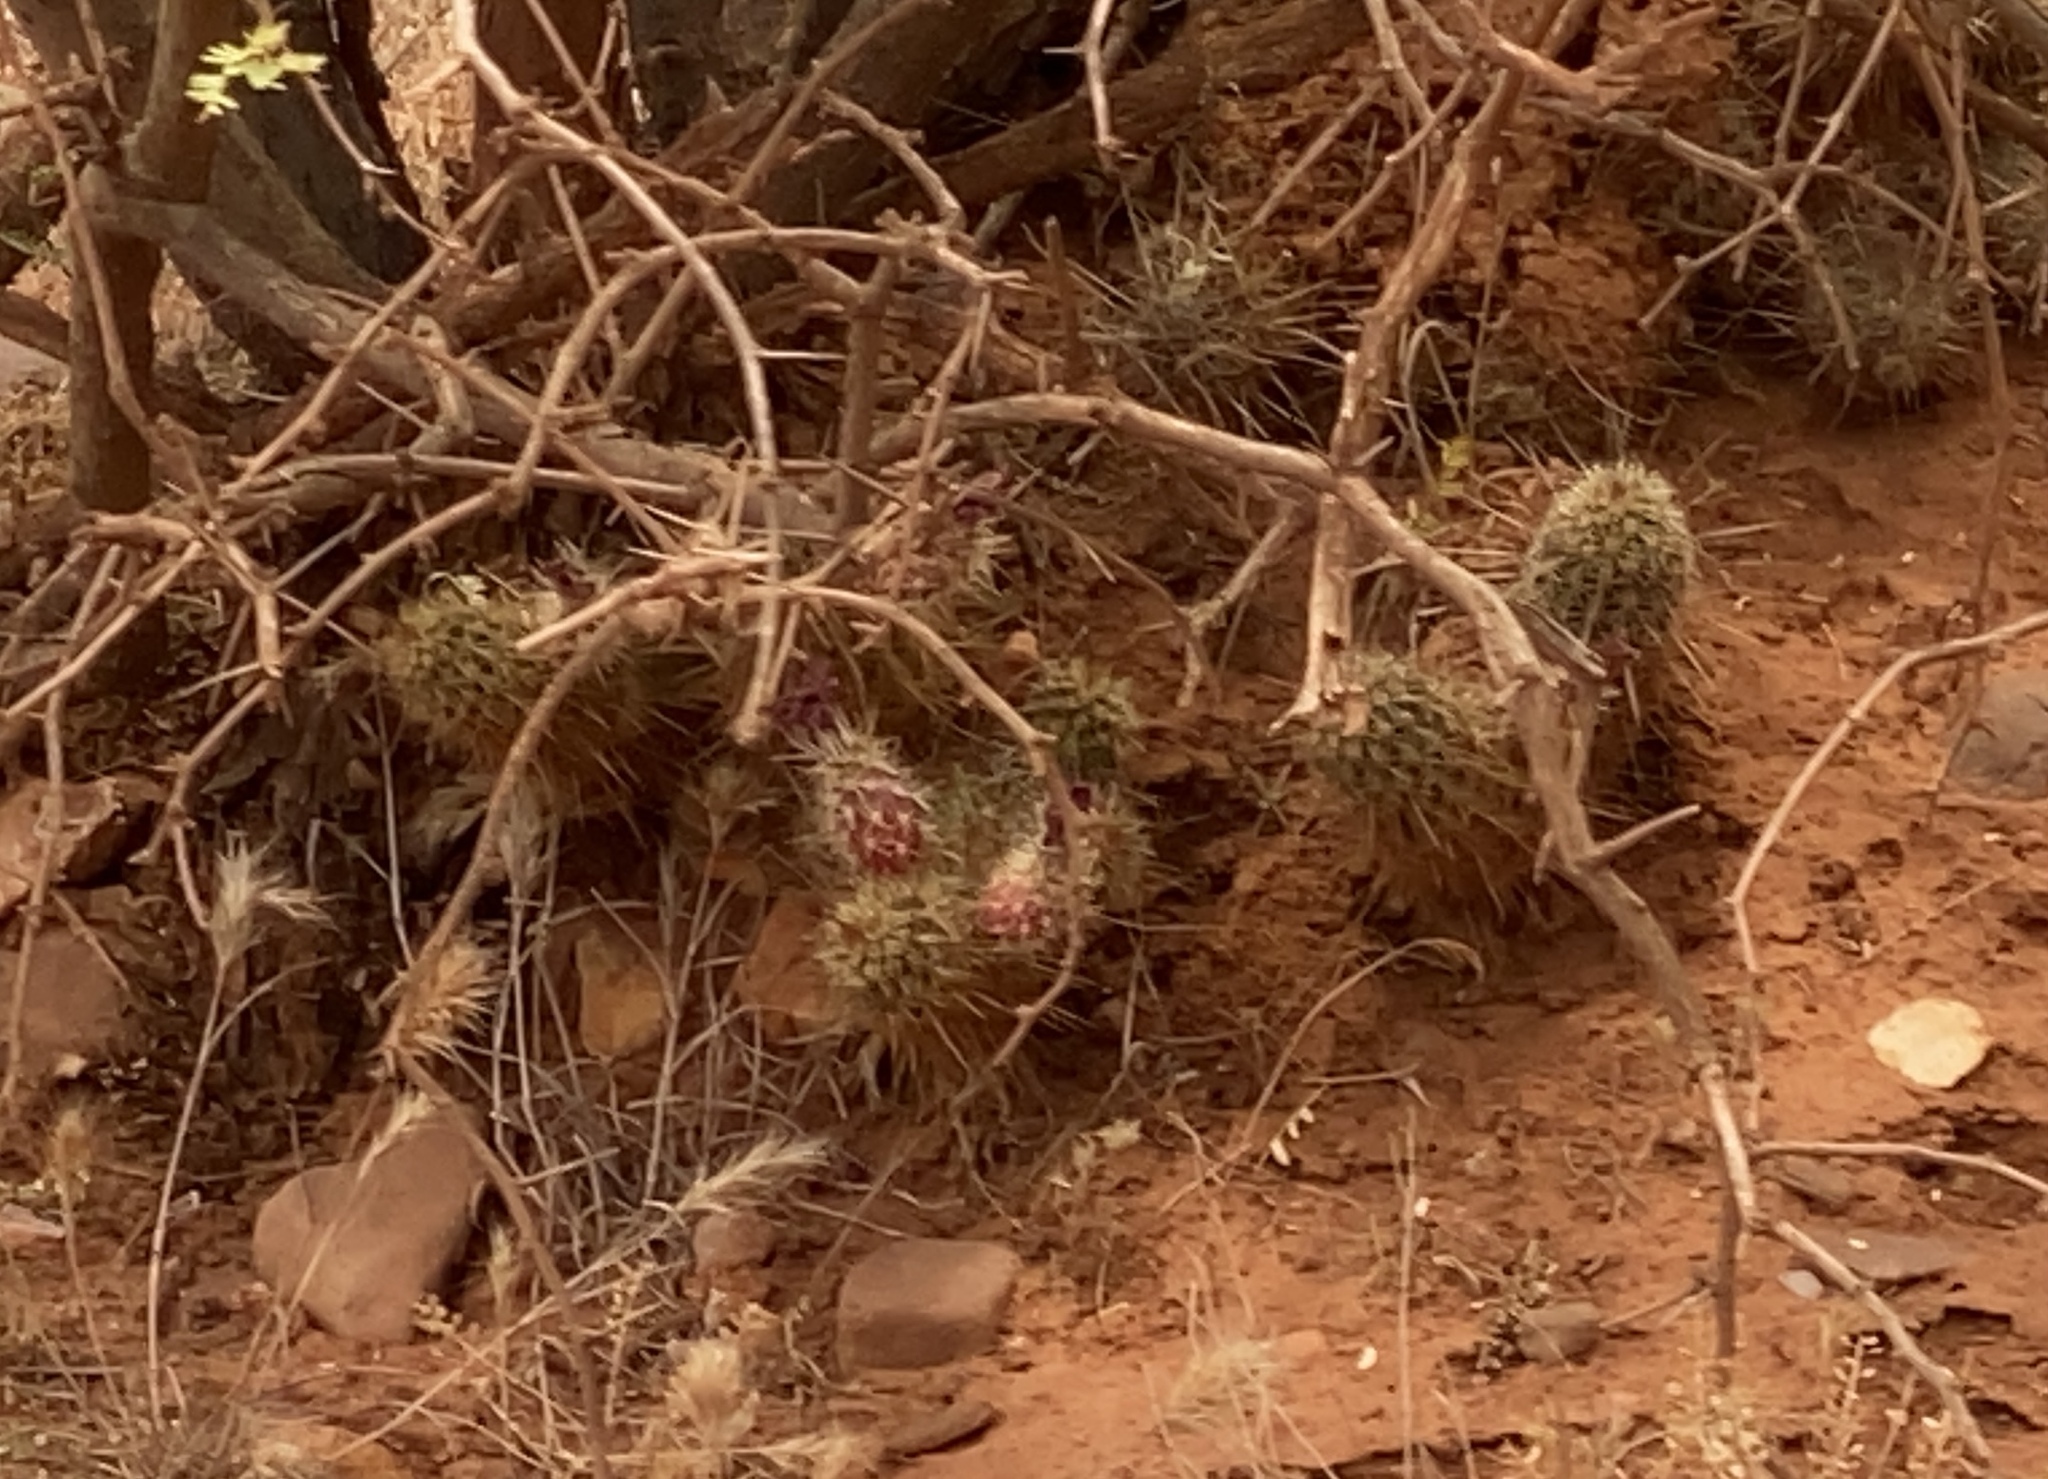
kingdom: Plantae
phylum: Tracheophyta
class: Magnoliopsida
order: Caryophyllales
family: Cactaceae
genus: Echinocereus
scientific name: Echinocereus fasciculatus
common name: Bundle hedgehog
